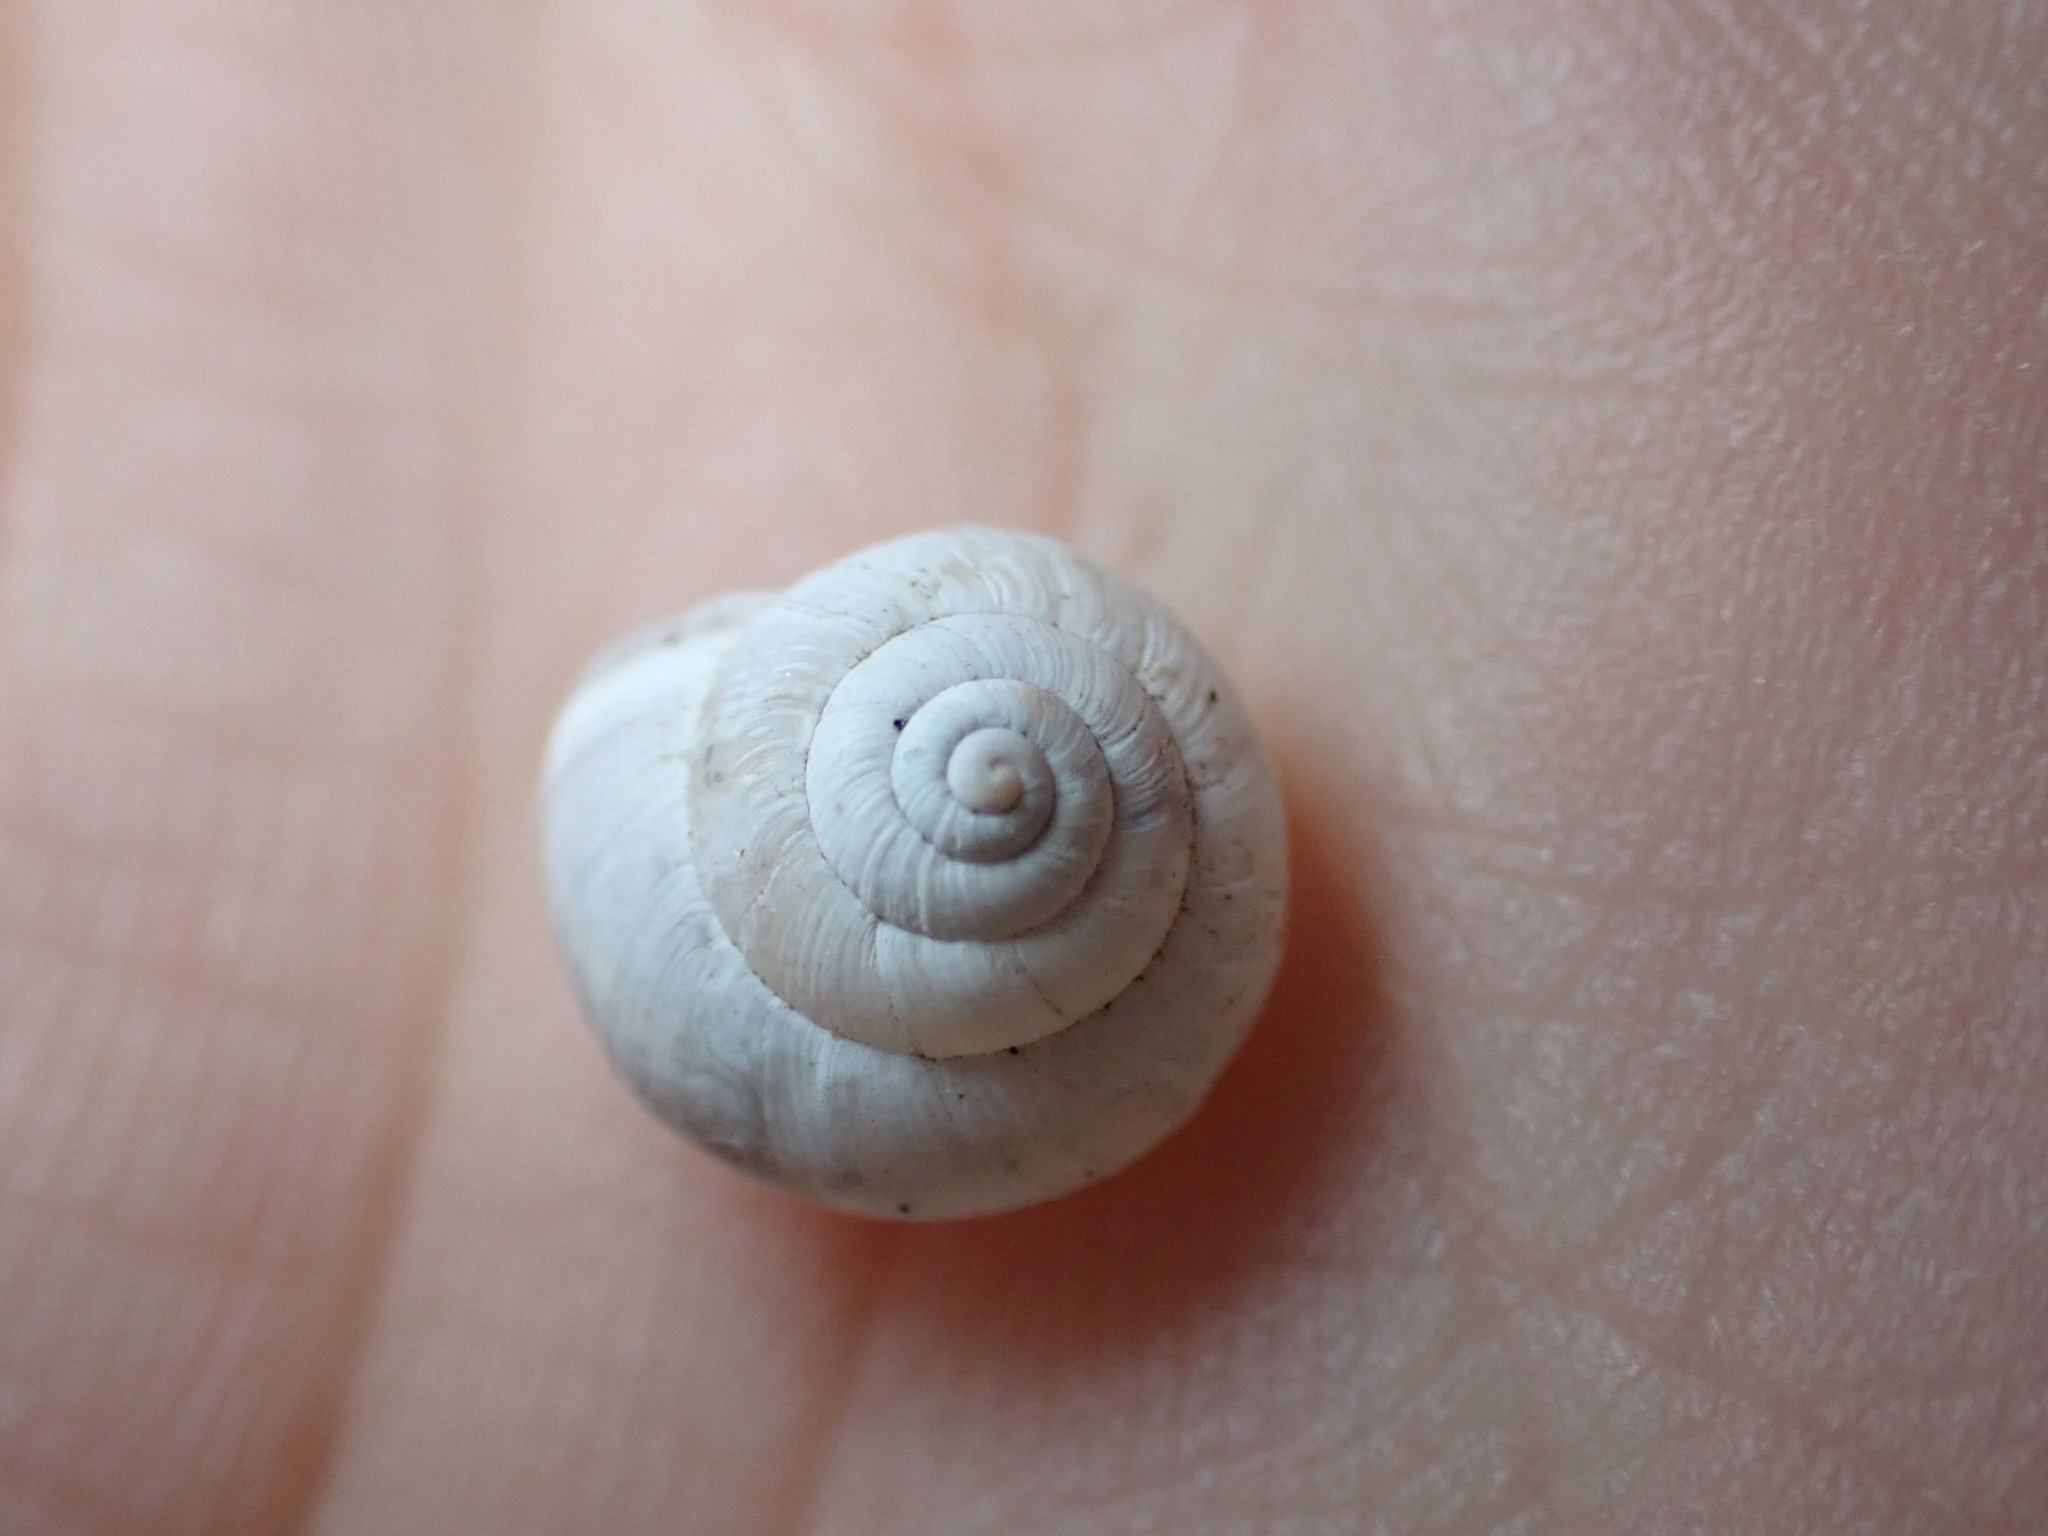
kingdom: Animalia
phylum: Mollusca
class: Gastropoda
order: Stylommatophora
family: Geomitridae
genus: Helicella
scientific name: Helicella bolenensis
